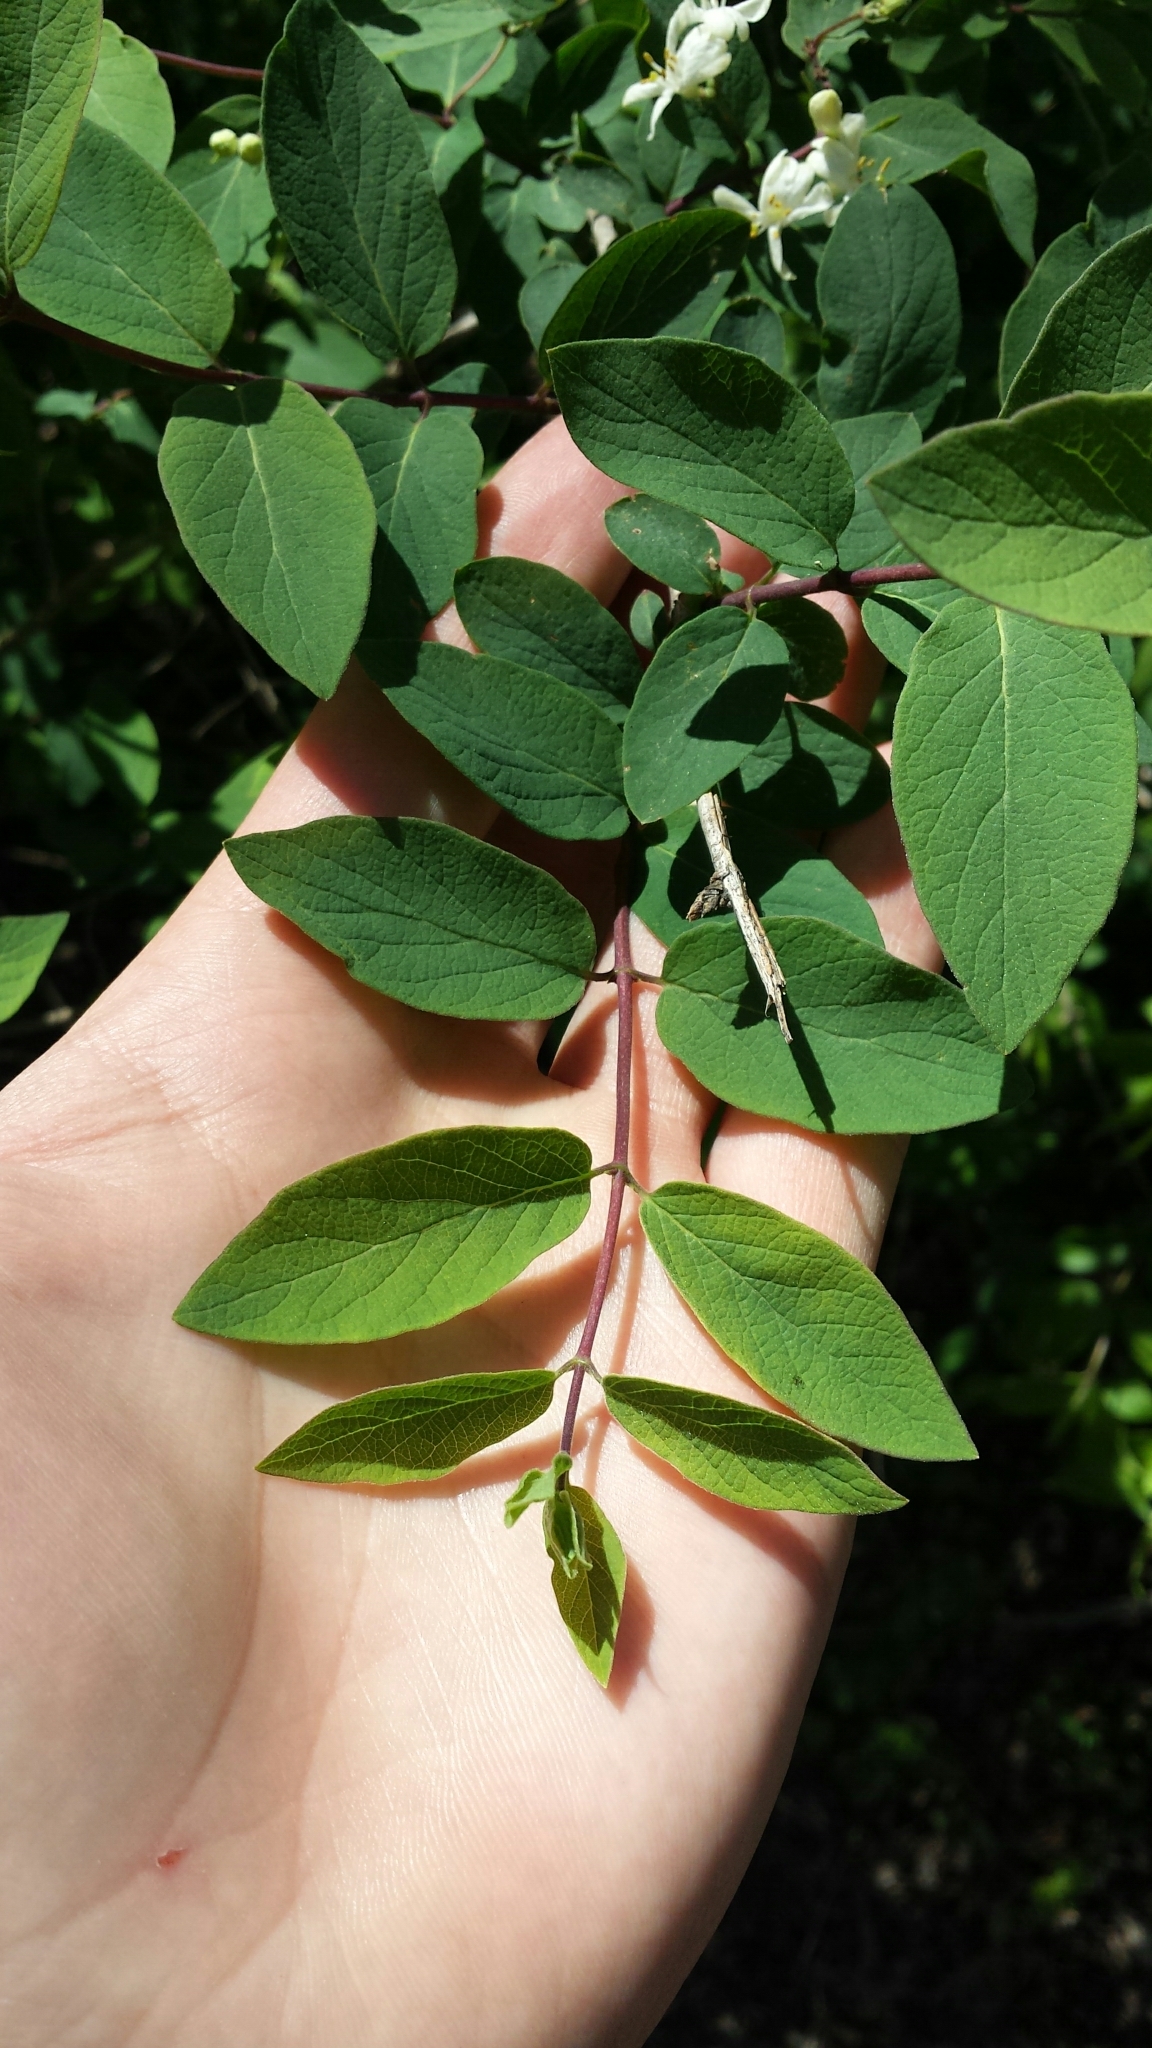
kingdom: Plantae
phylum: Tracheophyta
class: Magnoliopsida
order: Dipsacales
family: Caprifoliaceae
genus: Lonicera
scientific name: Lonicera morrowii
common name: Morrow's honeysuckle
